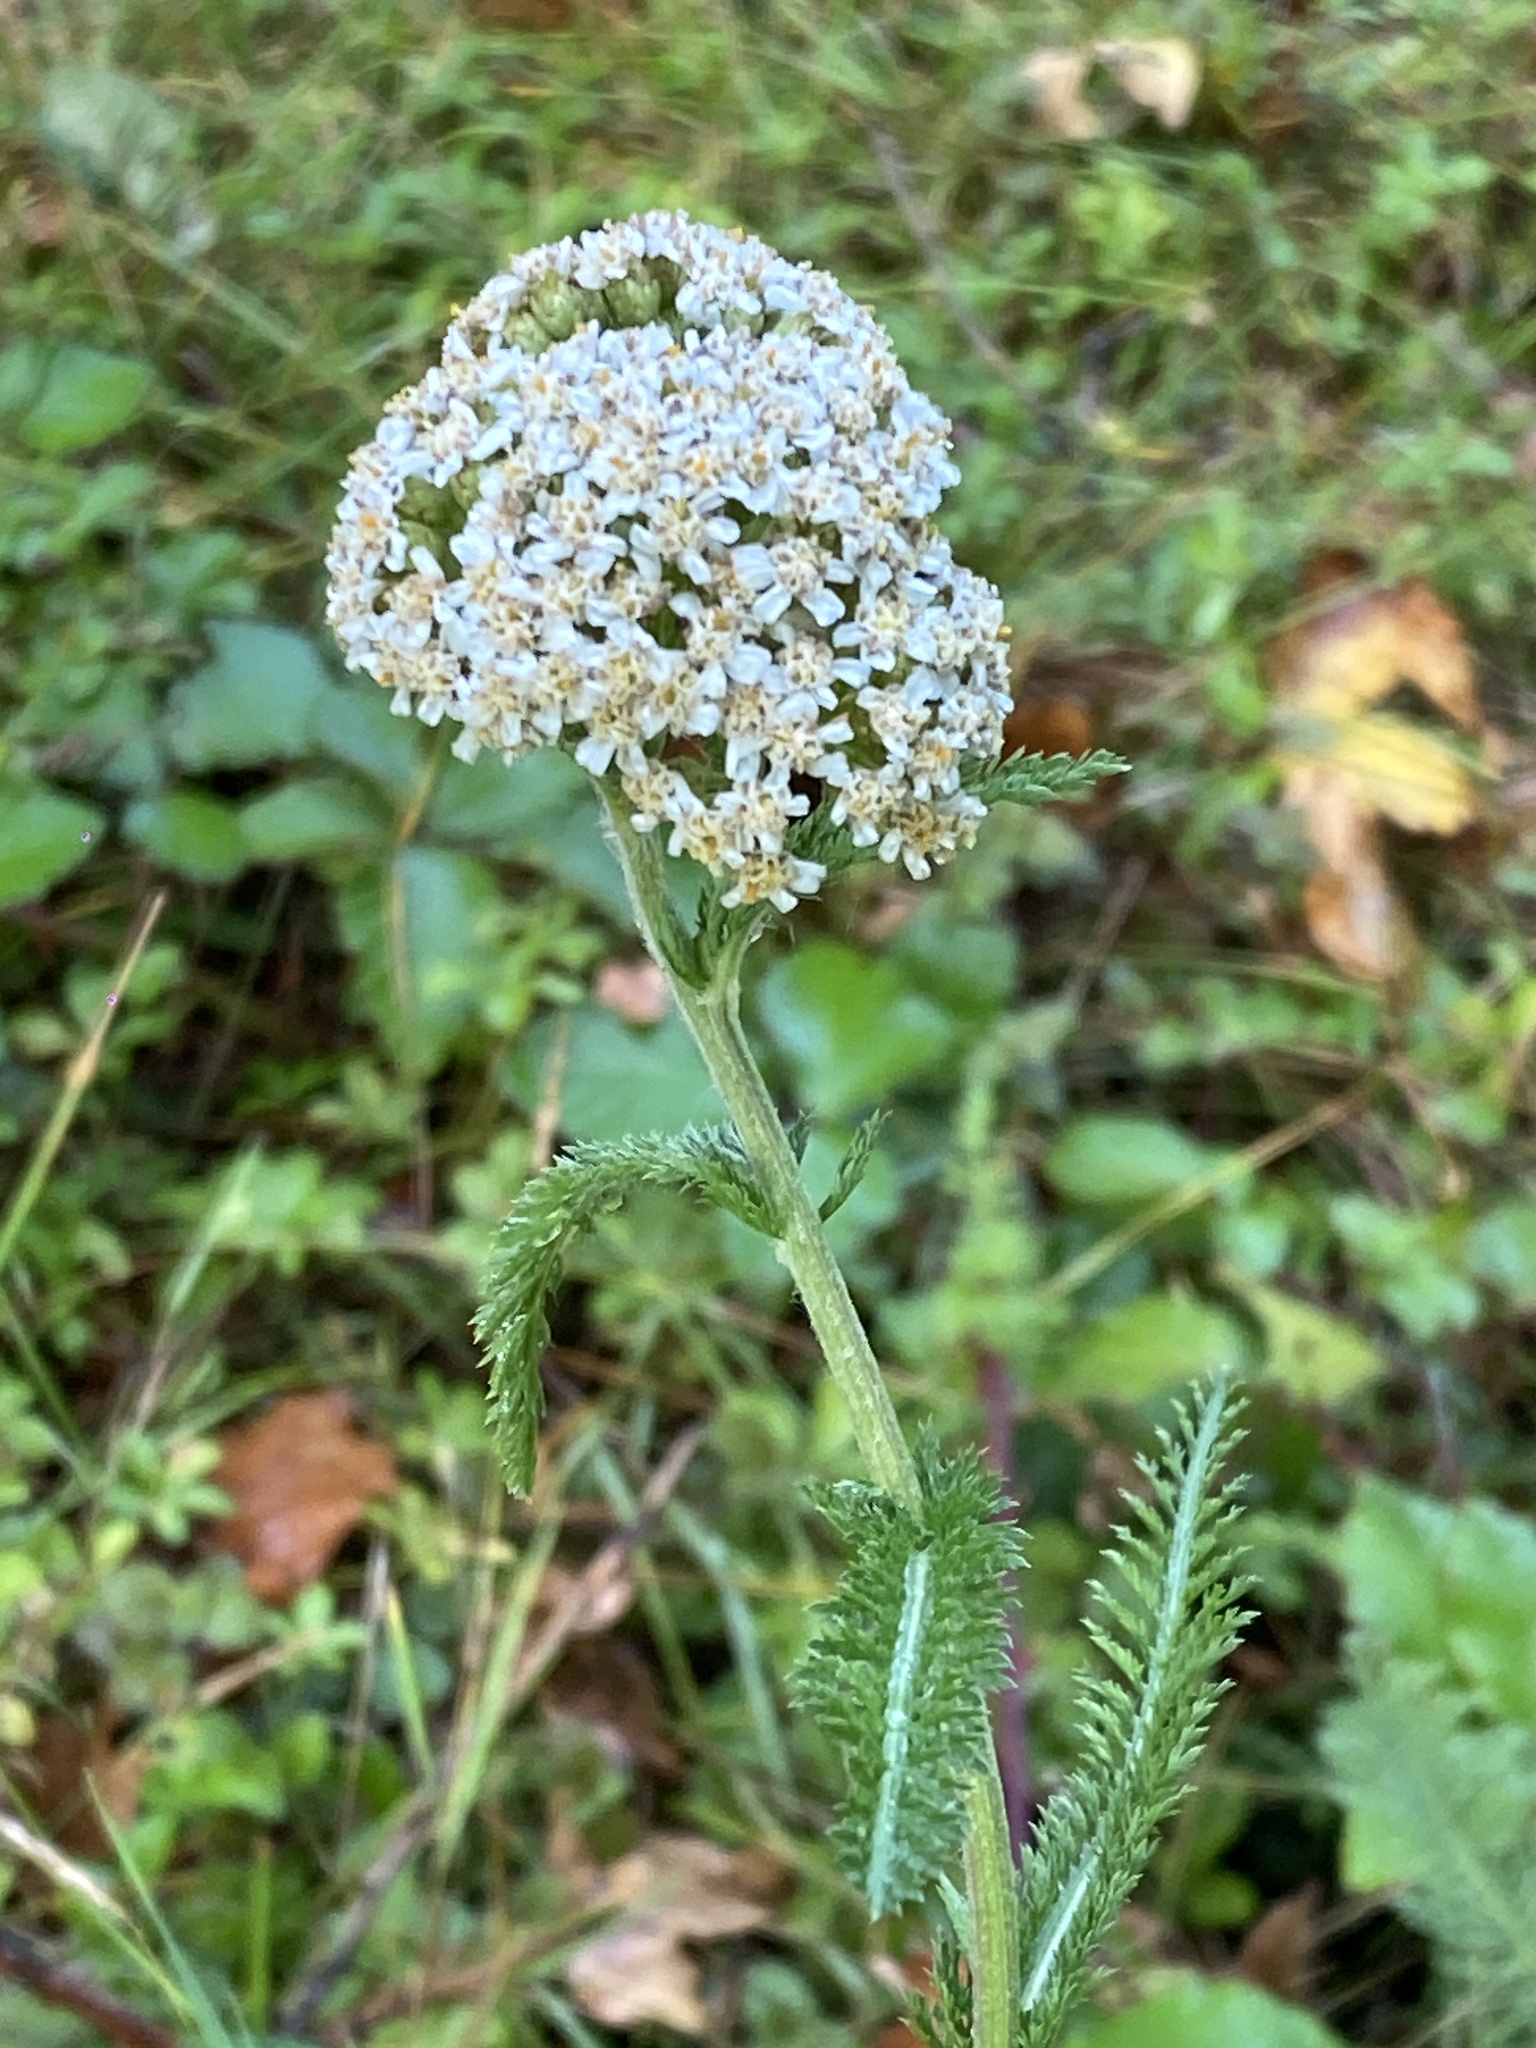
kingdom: Plantae
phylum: Tracheophyta
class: Magnoliopsida
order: Asterales
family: Asteraceae
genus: Achillea
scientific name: Achillea millefolium
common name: Yarrow
